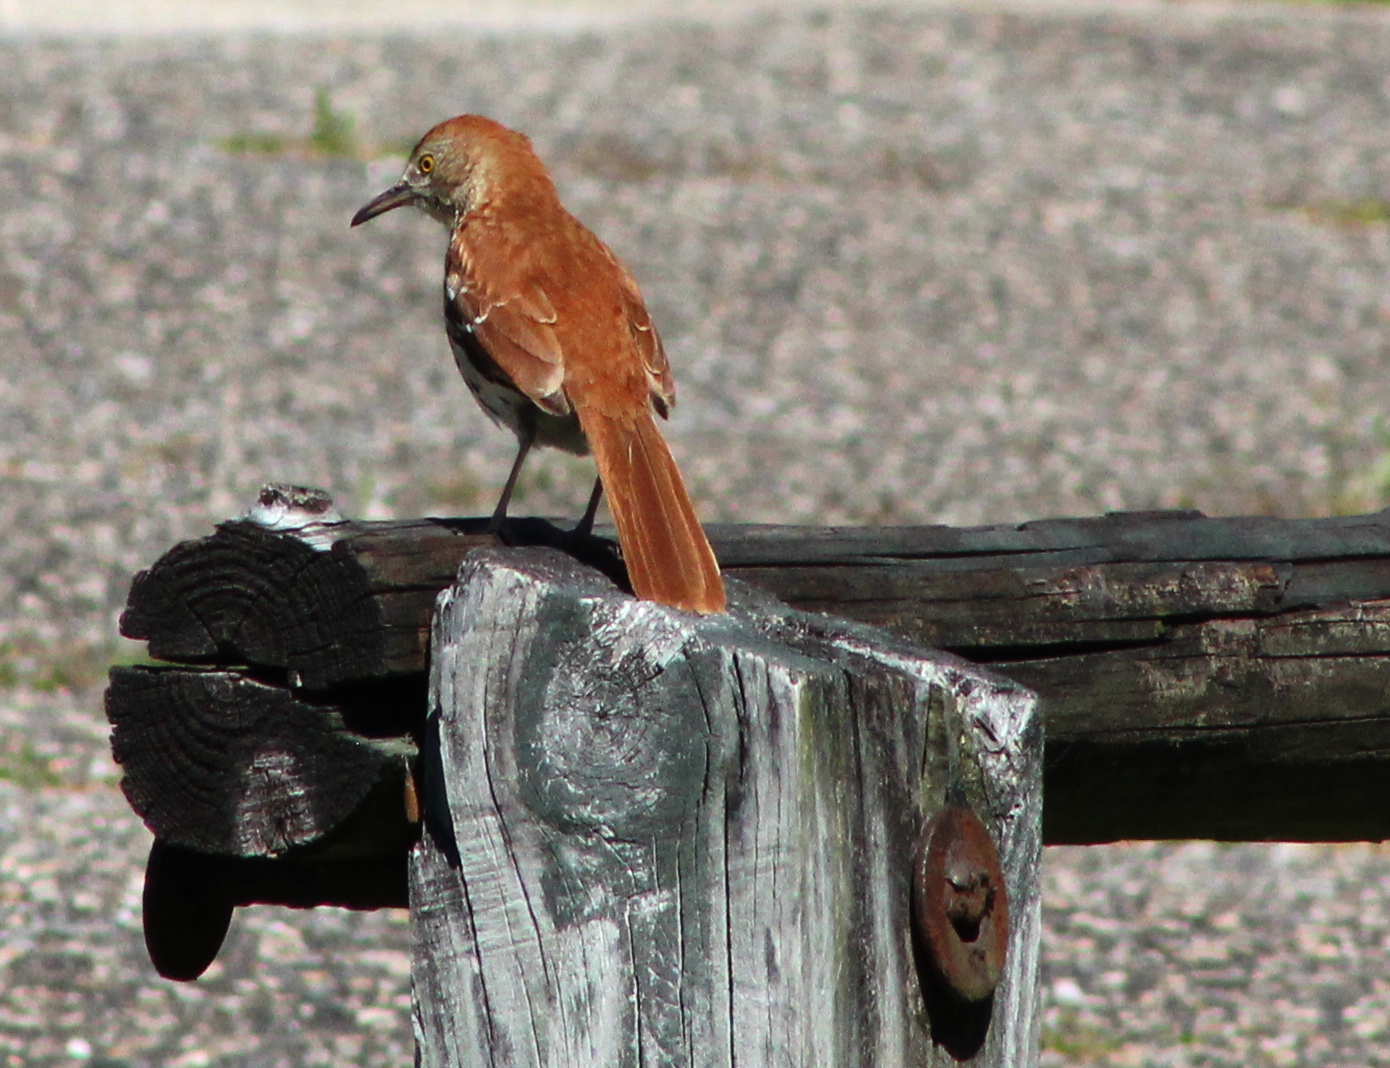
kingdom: Animalia
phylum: Chordata
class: Aves
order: Passeriformes
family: Mimidae
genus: Toxostoma
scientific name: Toxostoma rufum
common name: Brown thrasher
